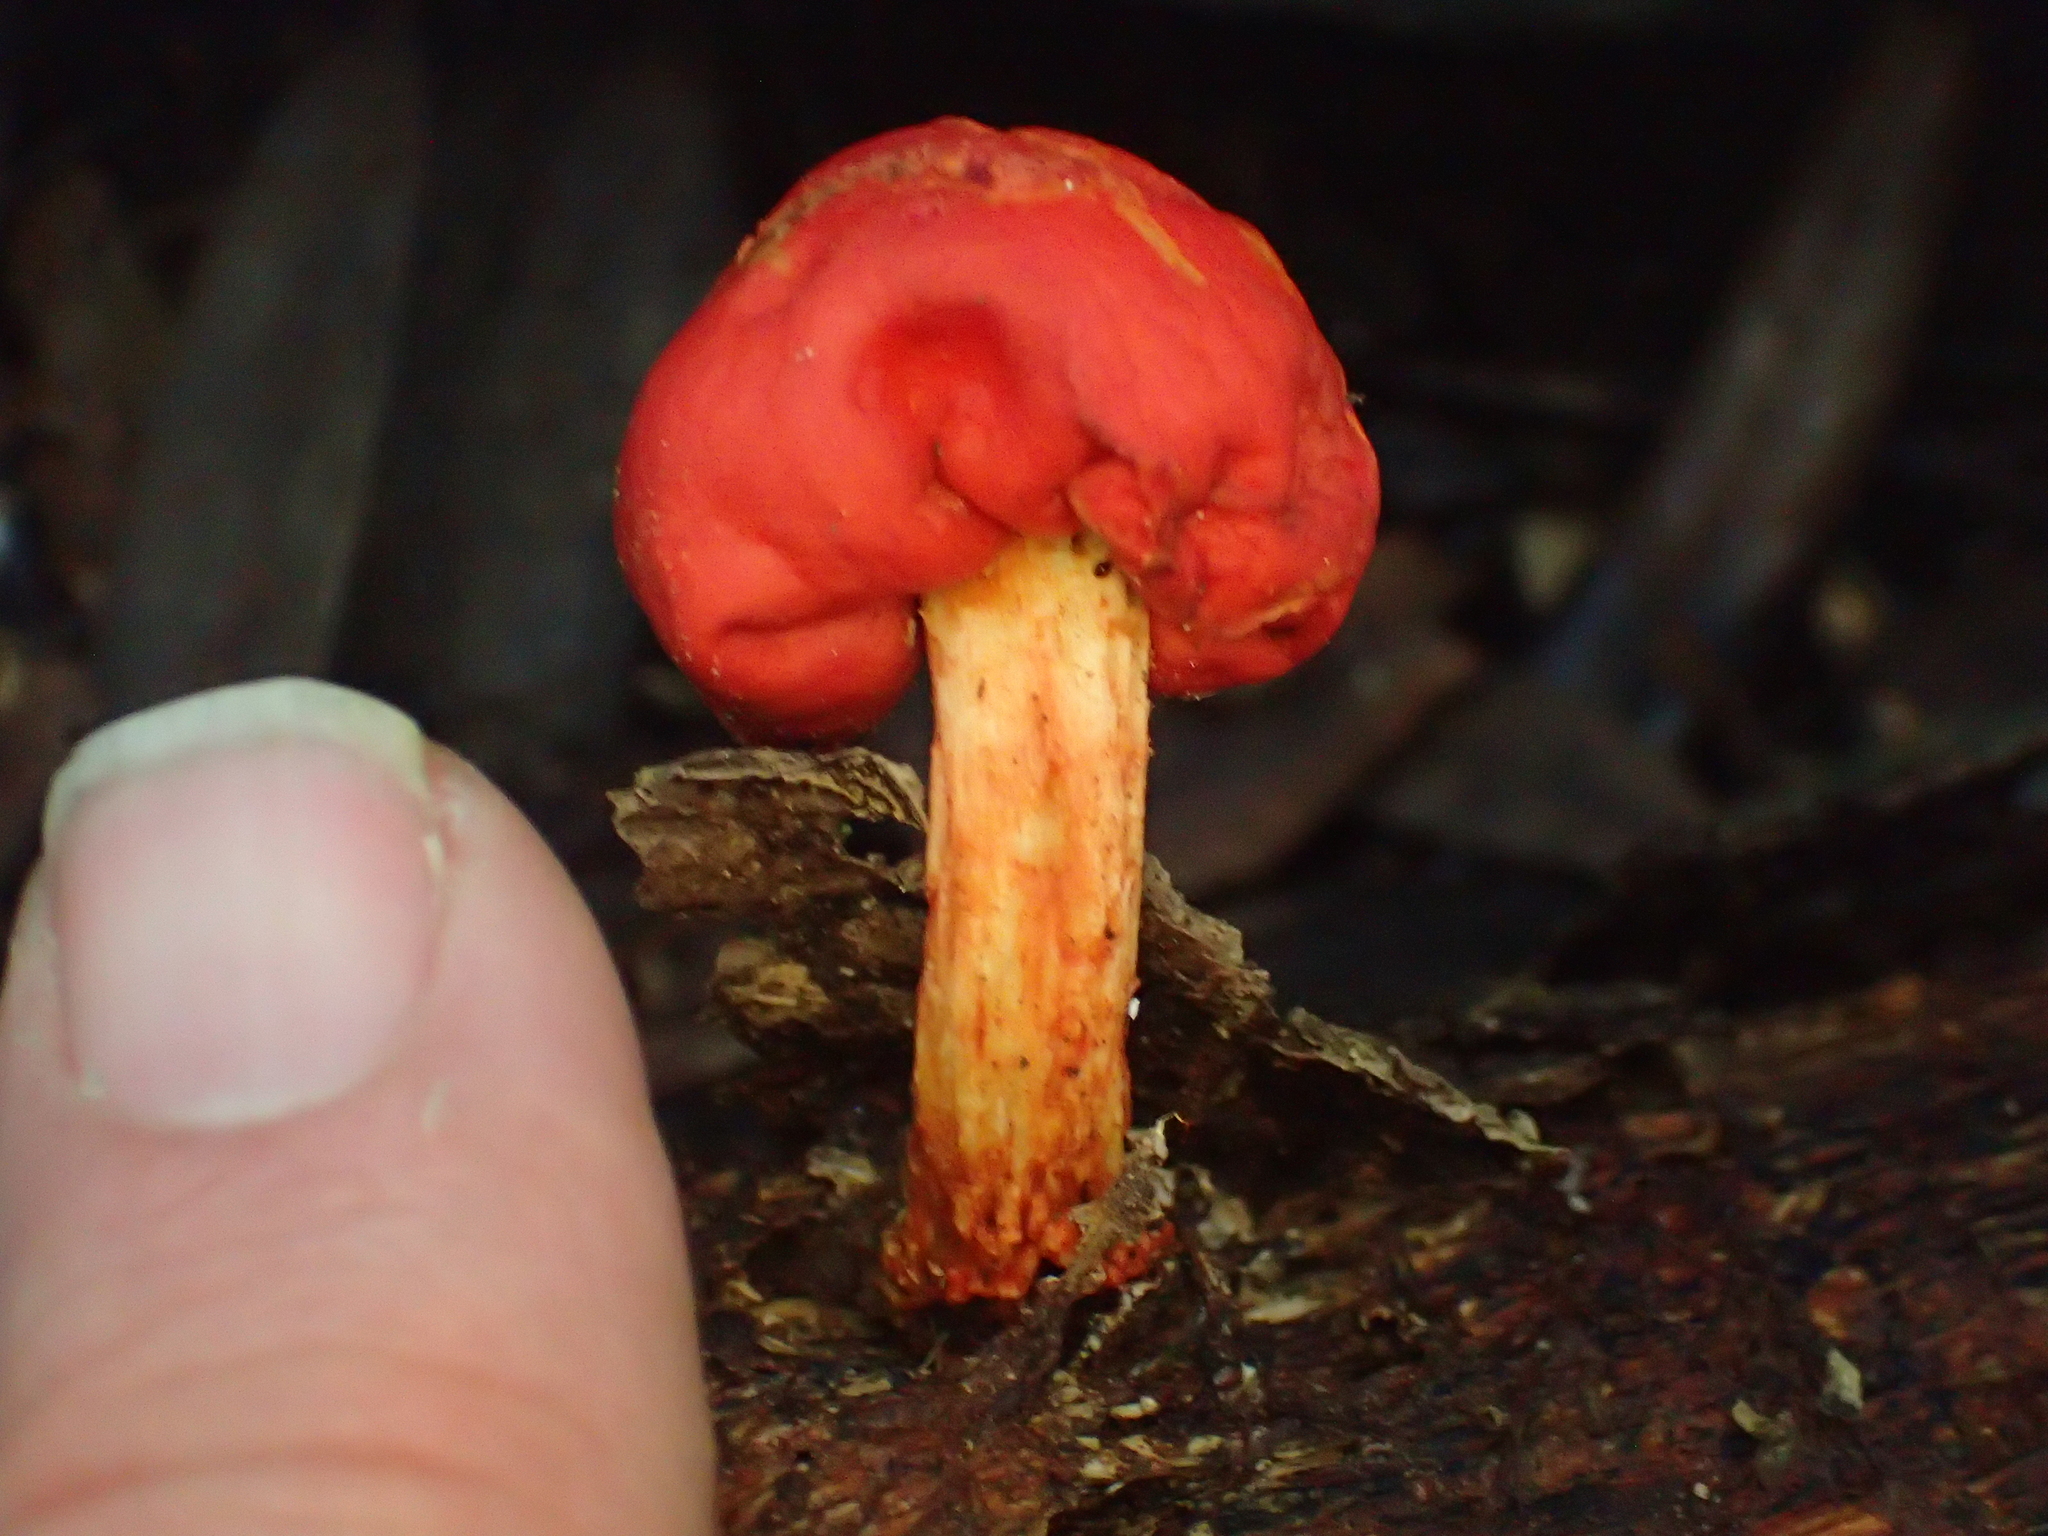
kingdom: Fungi
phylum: Basidiomycota
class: Agaricomycetes
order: Agaricales
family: Strophariaceae
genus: Leratiomyces
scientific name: Leratiomyces erythrocephalus
